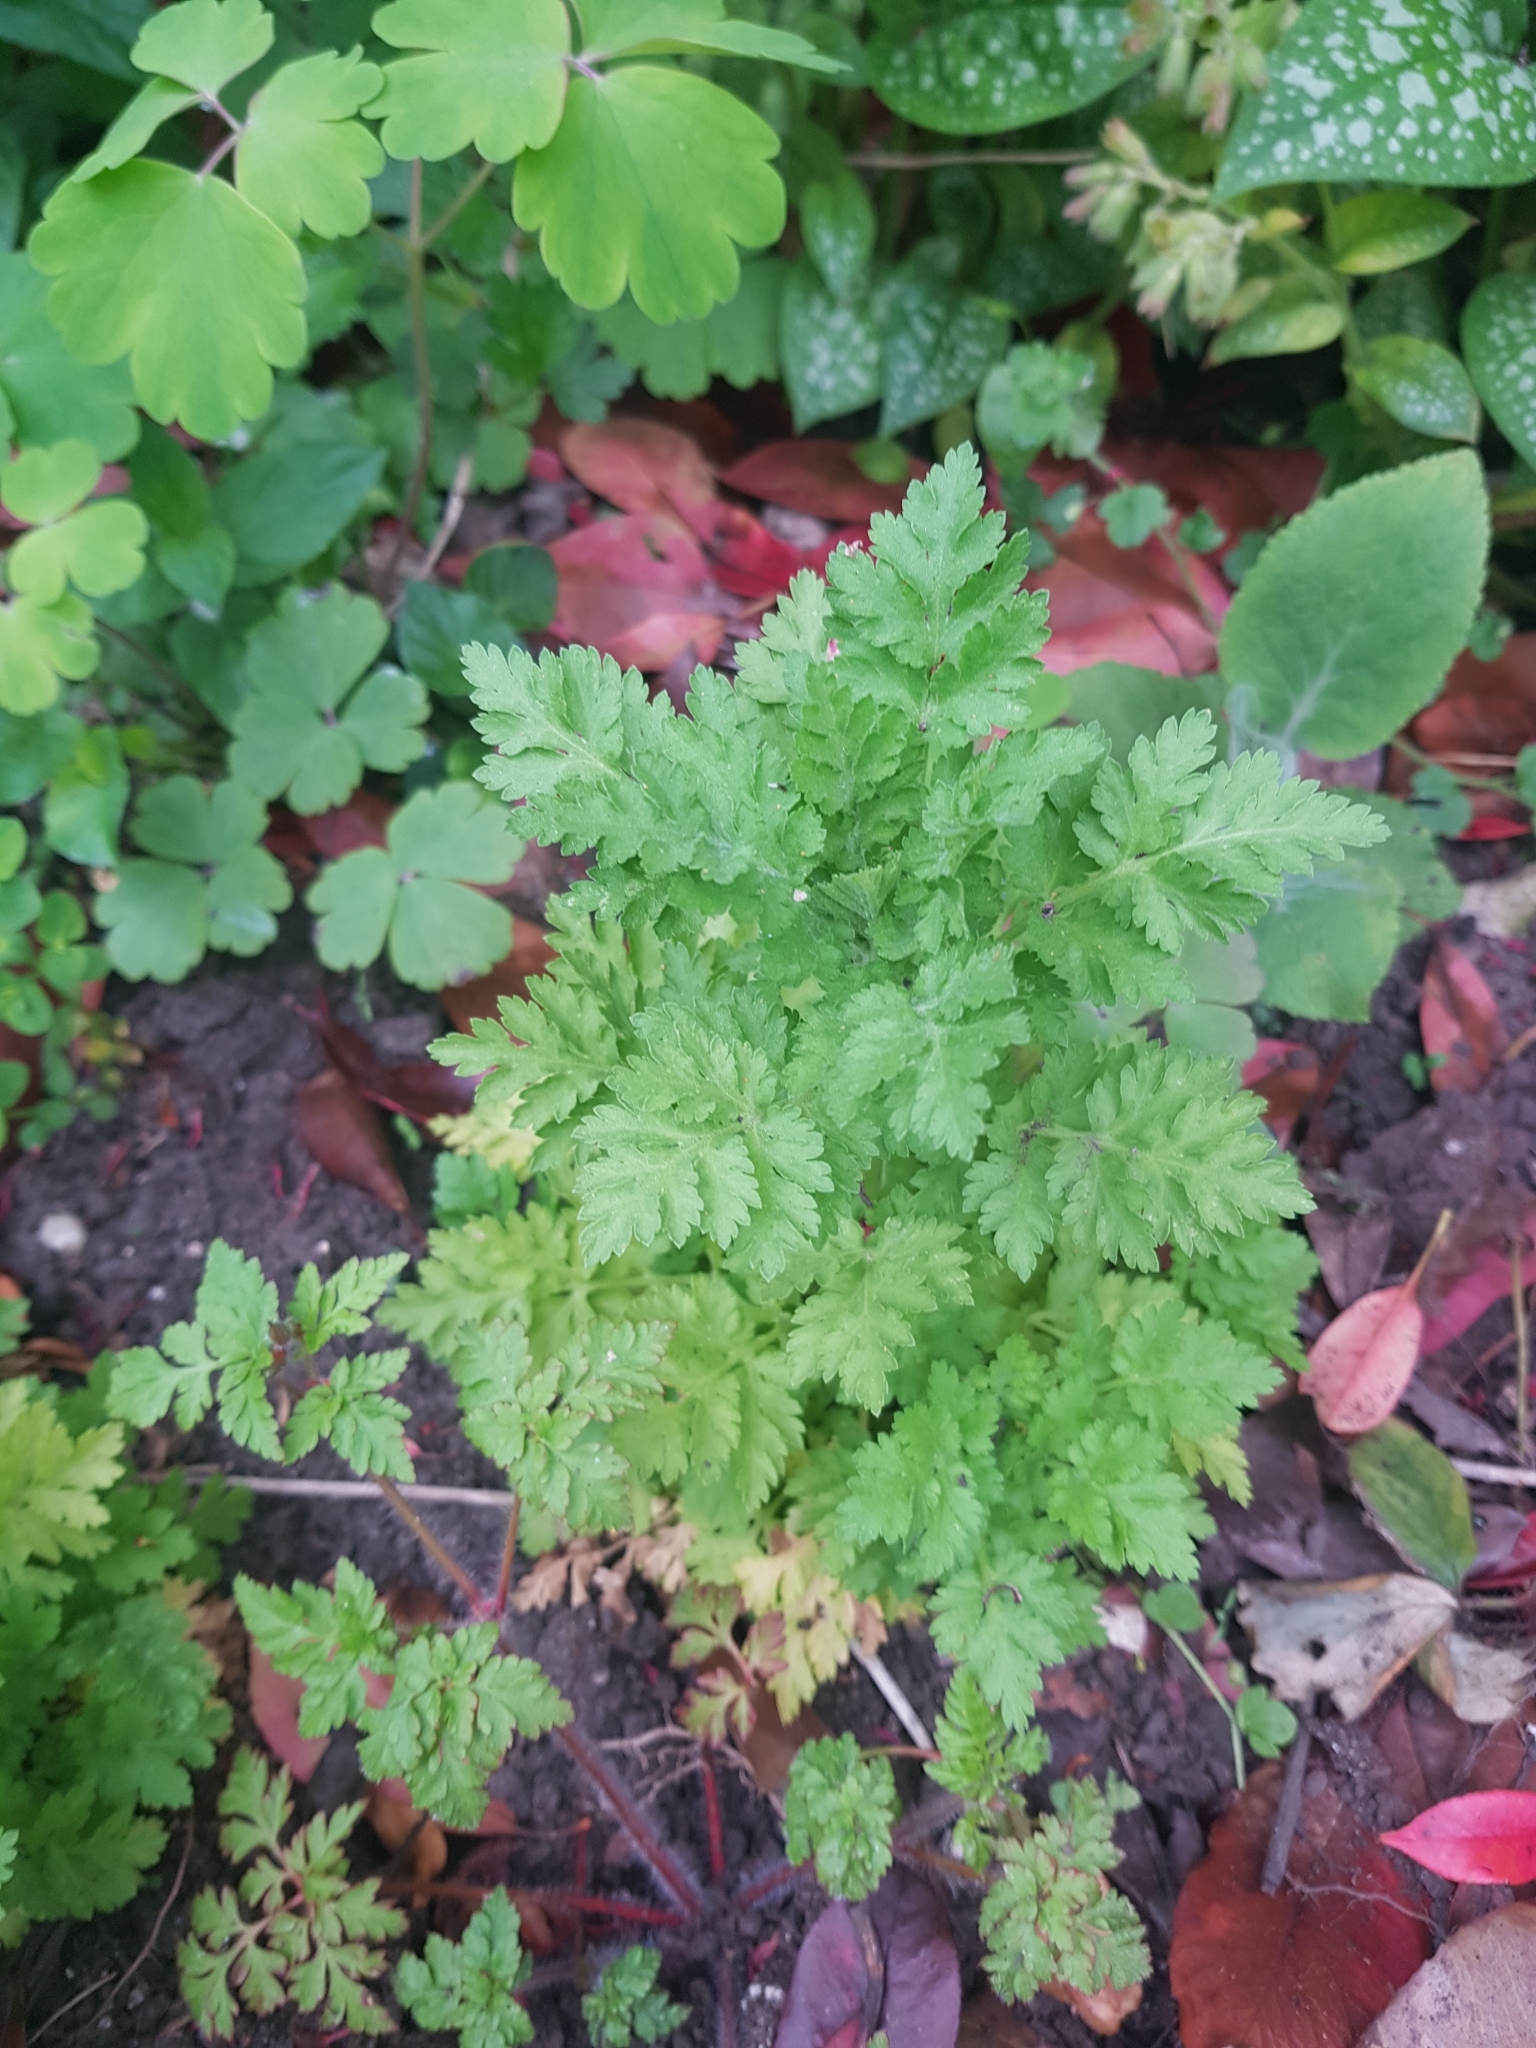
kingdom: Plantae
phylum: Tracheophyta
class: Magnoliopsida
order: Asterales
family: Asteraceae
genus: Tanacetum
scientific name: Tanacetum parthenium
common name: Feverfew
